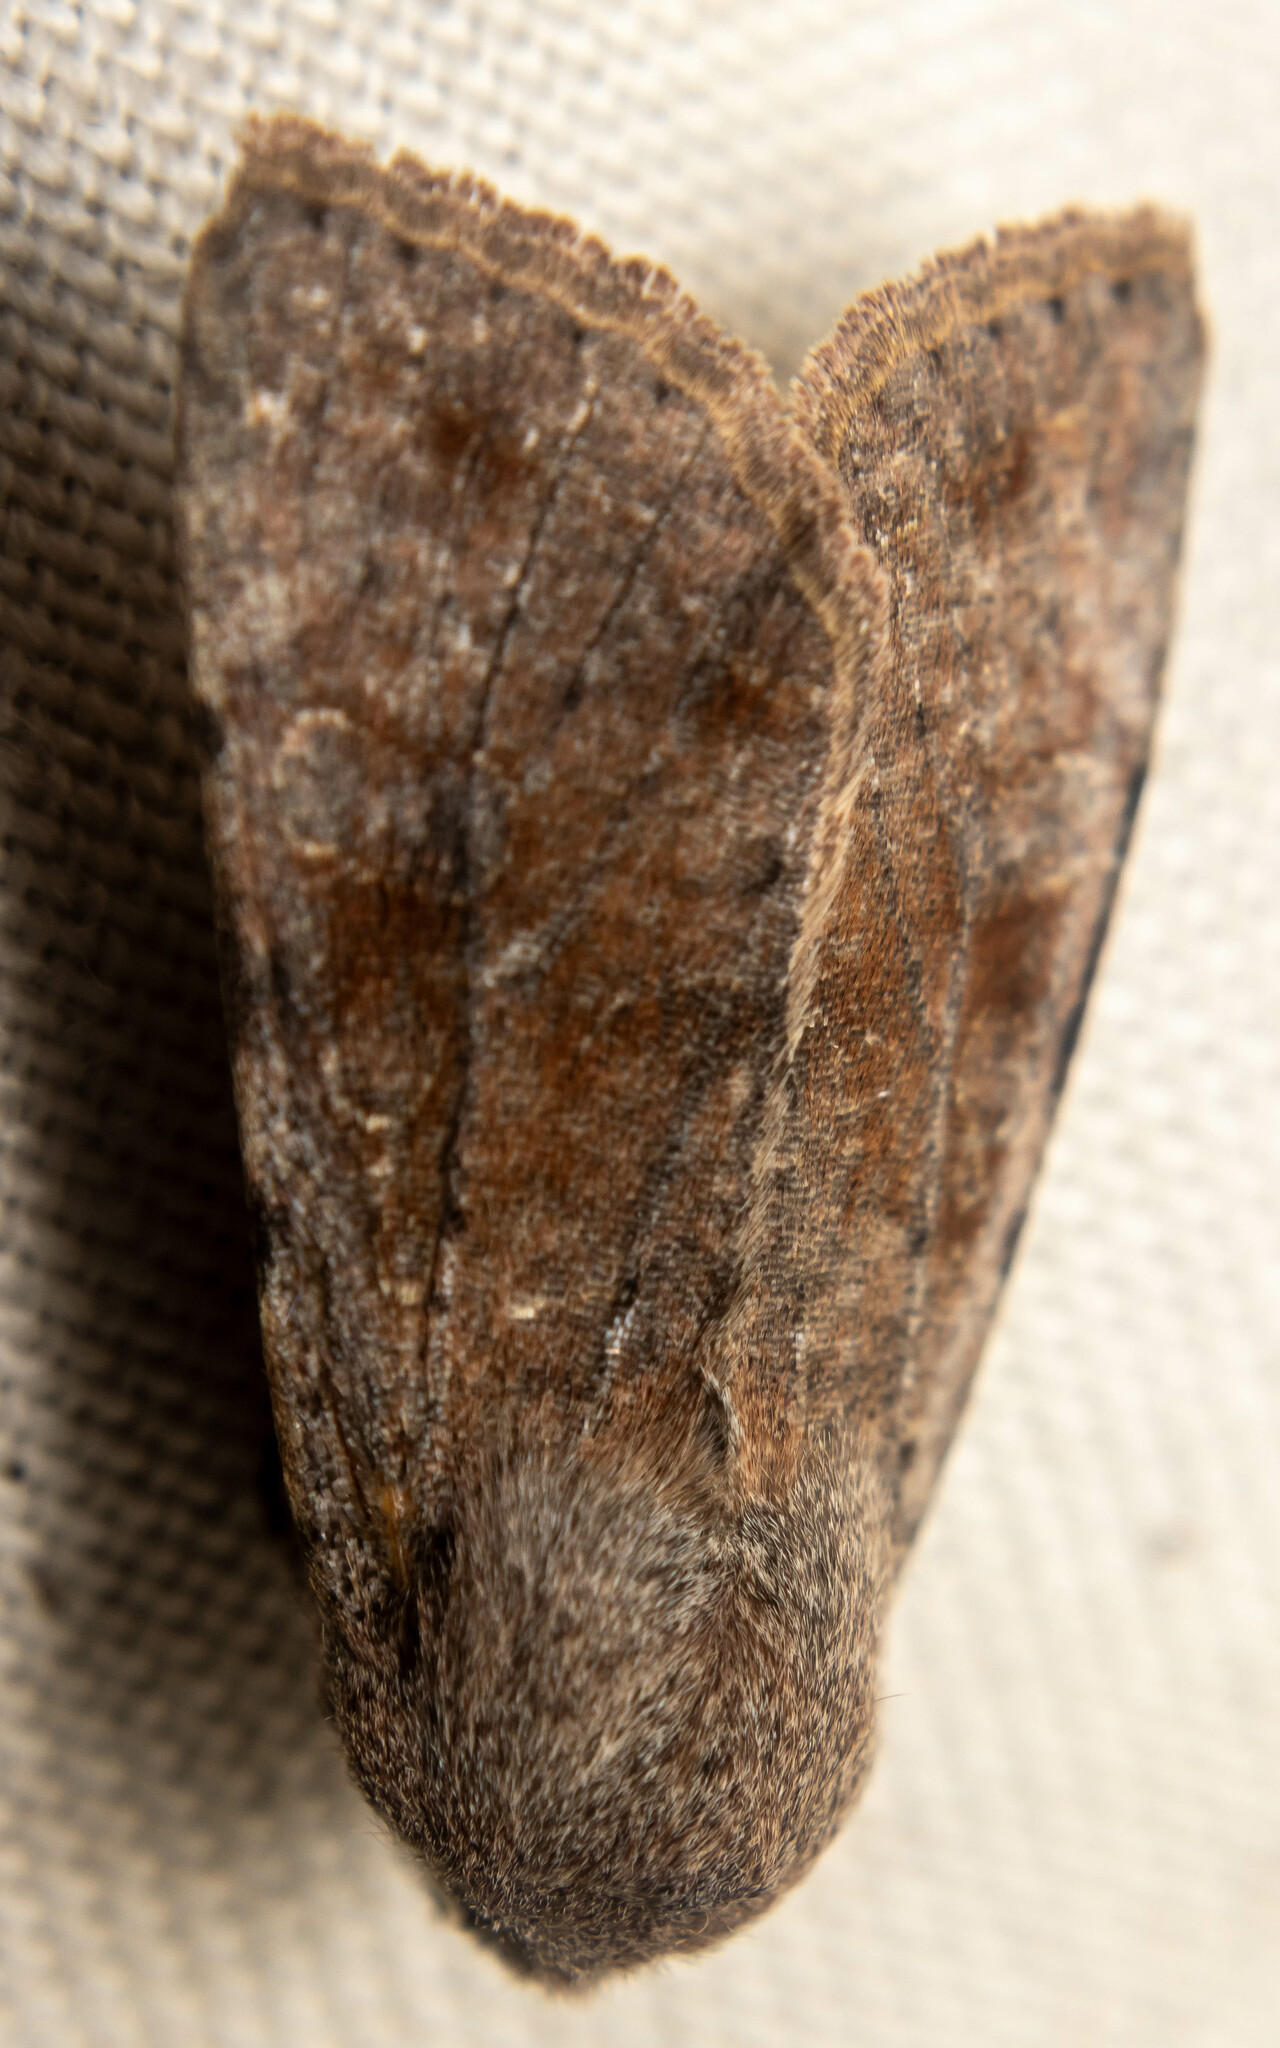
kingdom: Animalia
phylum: Arthropoda
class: Insecta
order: Lepidoptera
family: Noctuidae
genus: Orthosia
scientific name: Orthosia incerta
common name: Clouded drab
